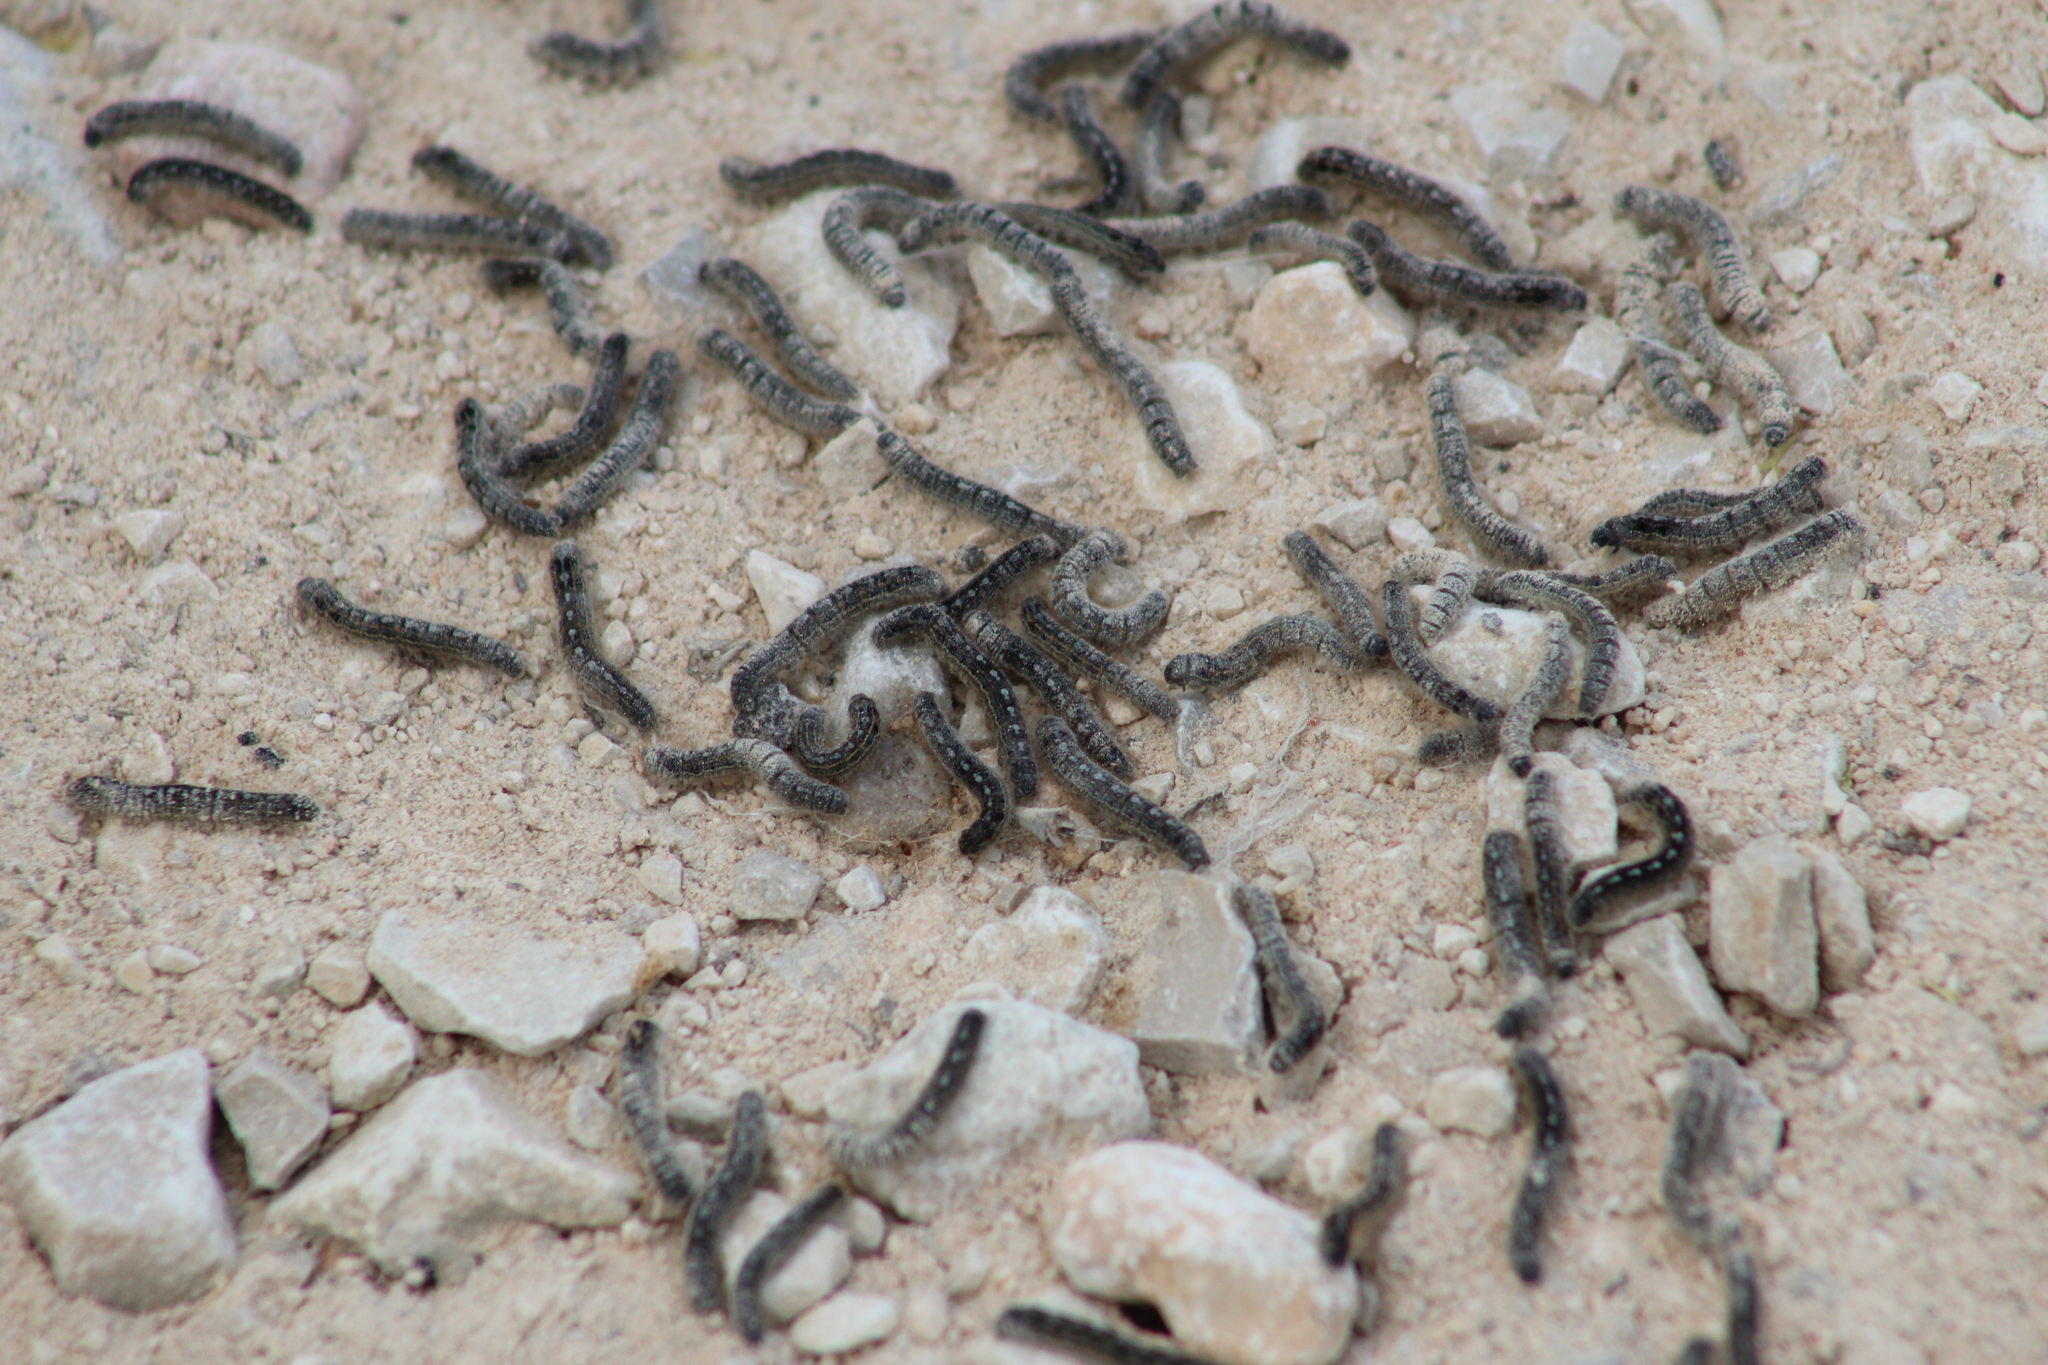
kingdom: Animalia
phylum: Arthropoda
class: Insecta
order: Lepidoptera
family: Lasiocampidae
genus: Malacosoma
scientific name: Malacosoma disstria
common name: Forest tent caterpillar
